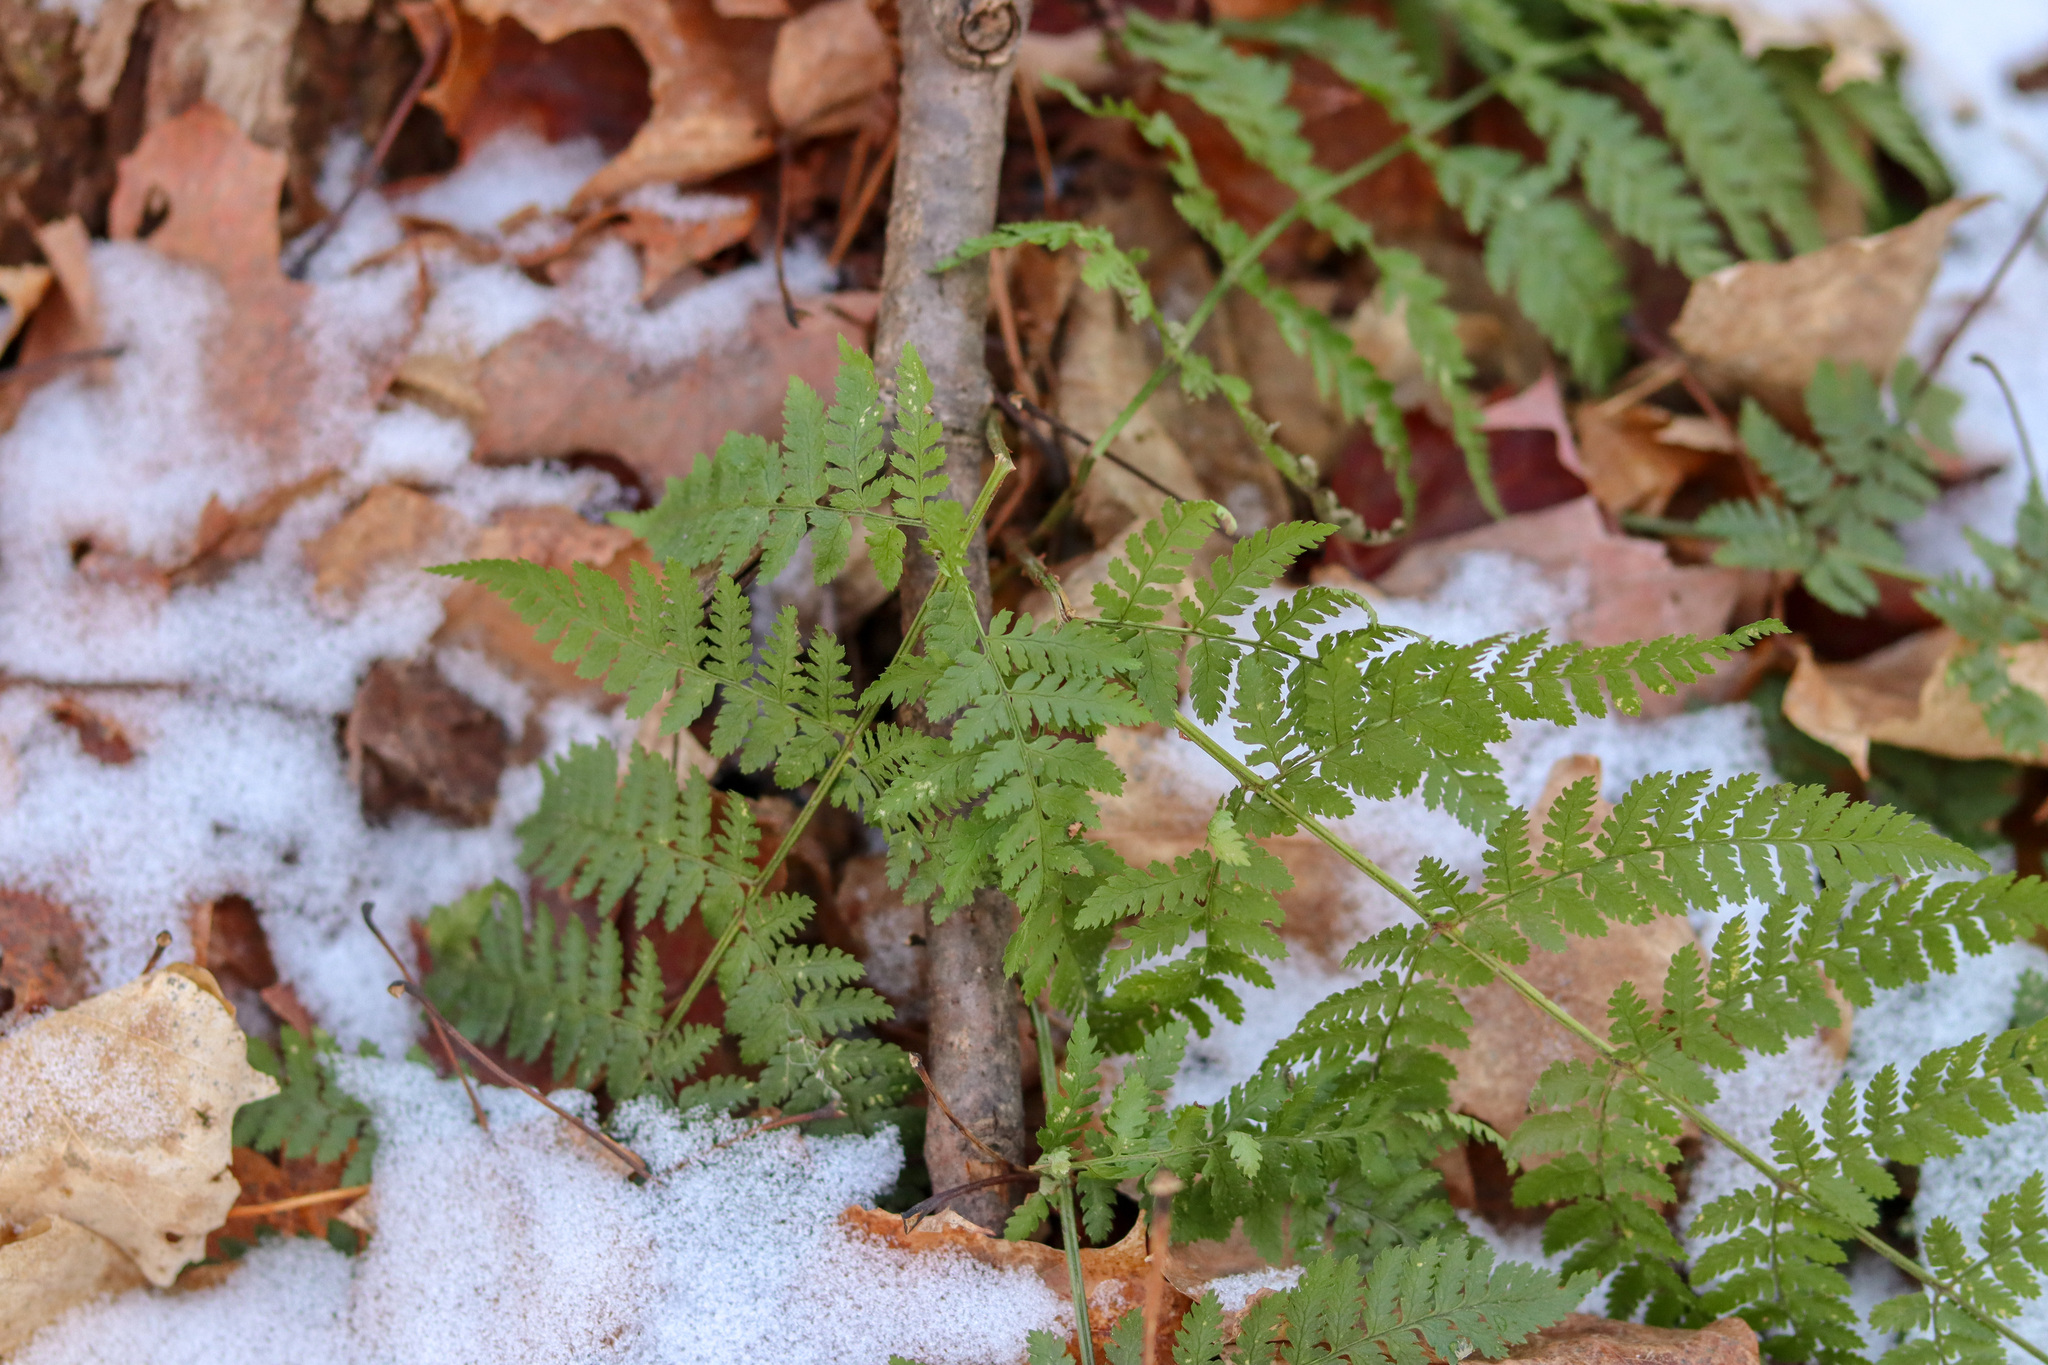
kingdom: Plantae
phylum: Tracheophyta
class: Polypodiopsida
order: Polypodiales
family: Dryopteridaceae
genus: Dryopteris
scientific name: Dryopteris intermedia
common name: Evergreen wood fern
